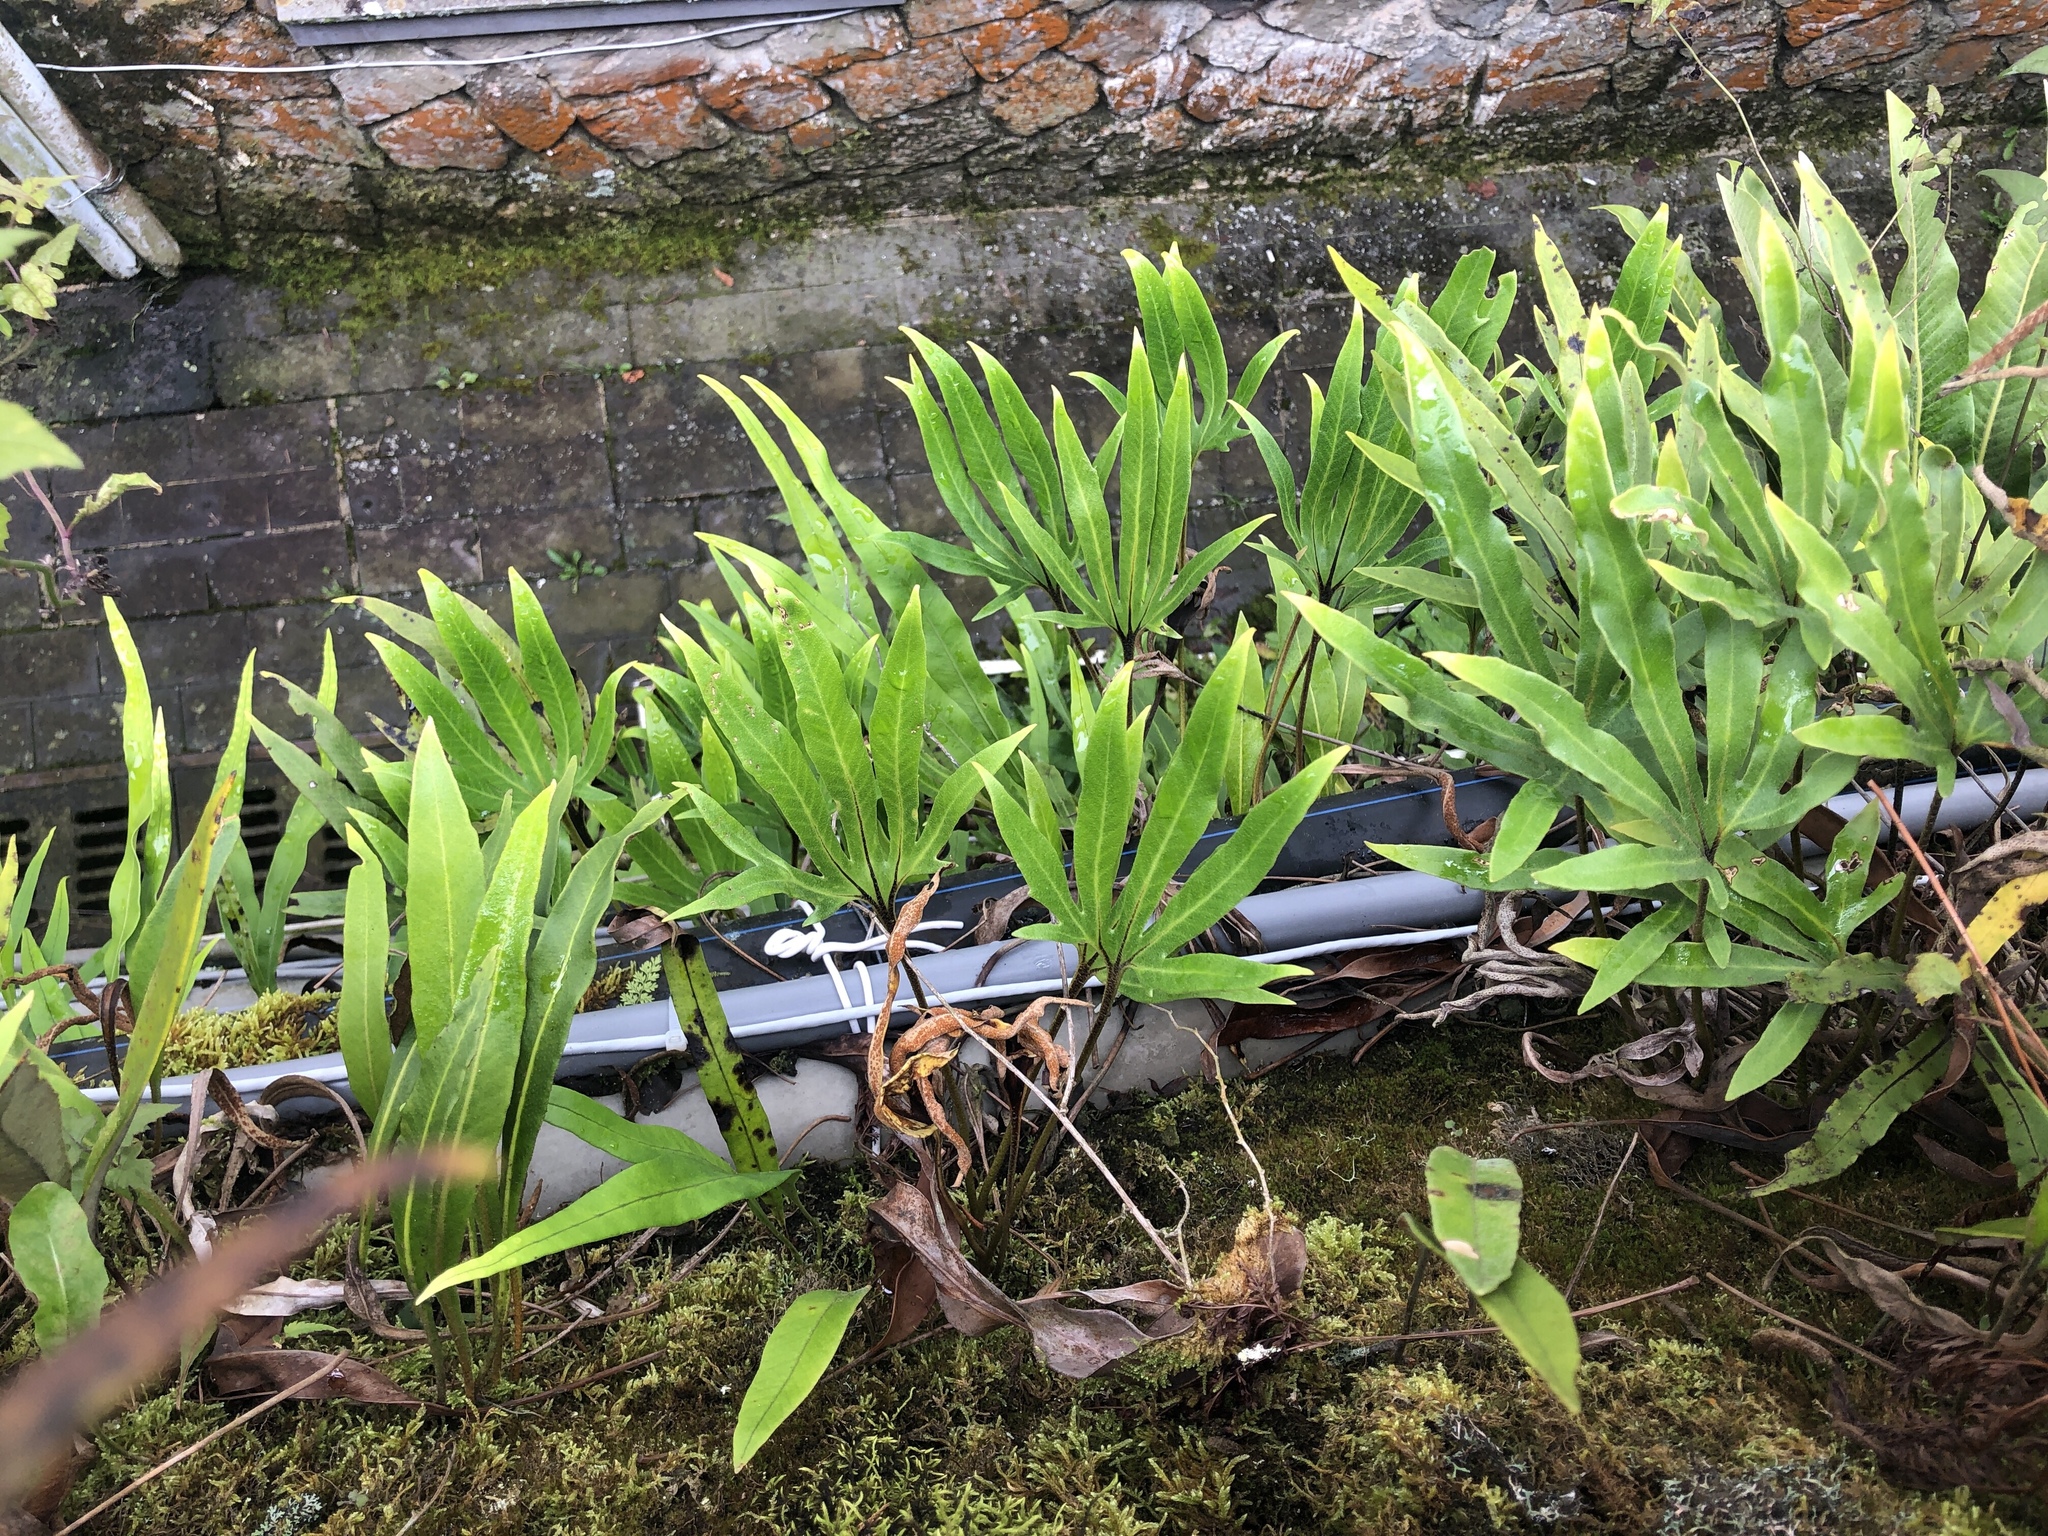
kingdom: Plantae
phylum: Tracheophyta
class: Polypodiopsida
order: Polypodiales
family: Polypodiaceae
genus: Pyrrosia
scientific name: Pyrrosia polydactyla
